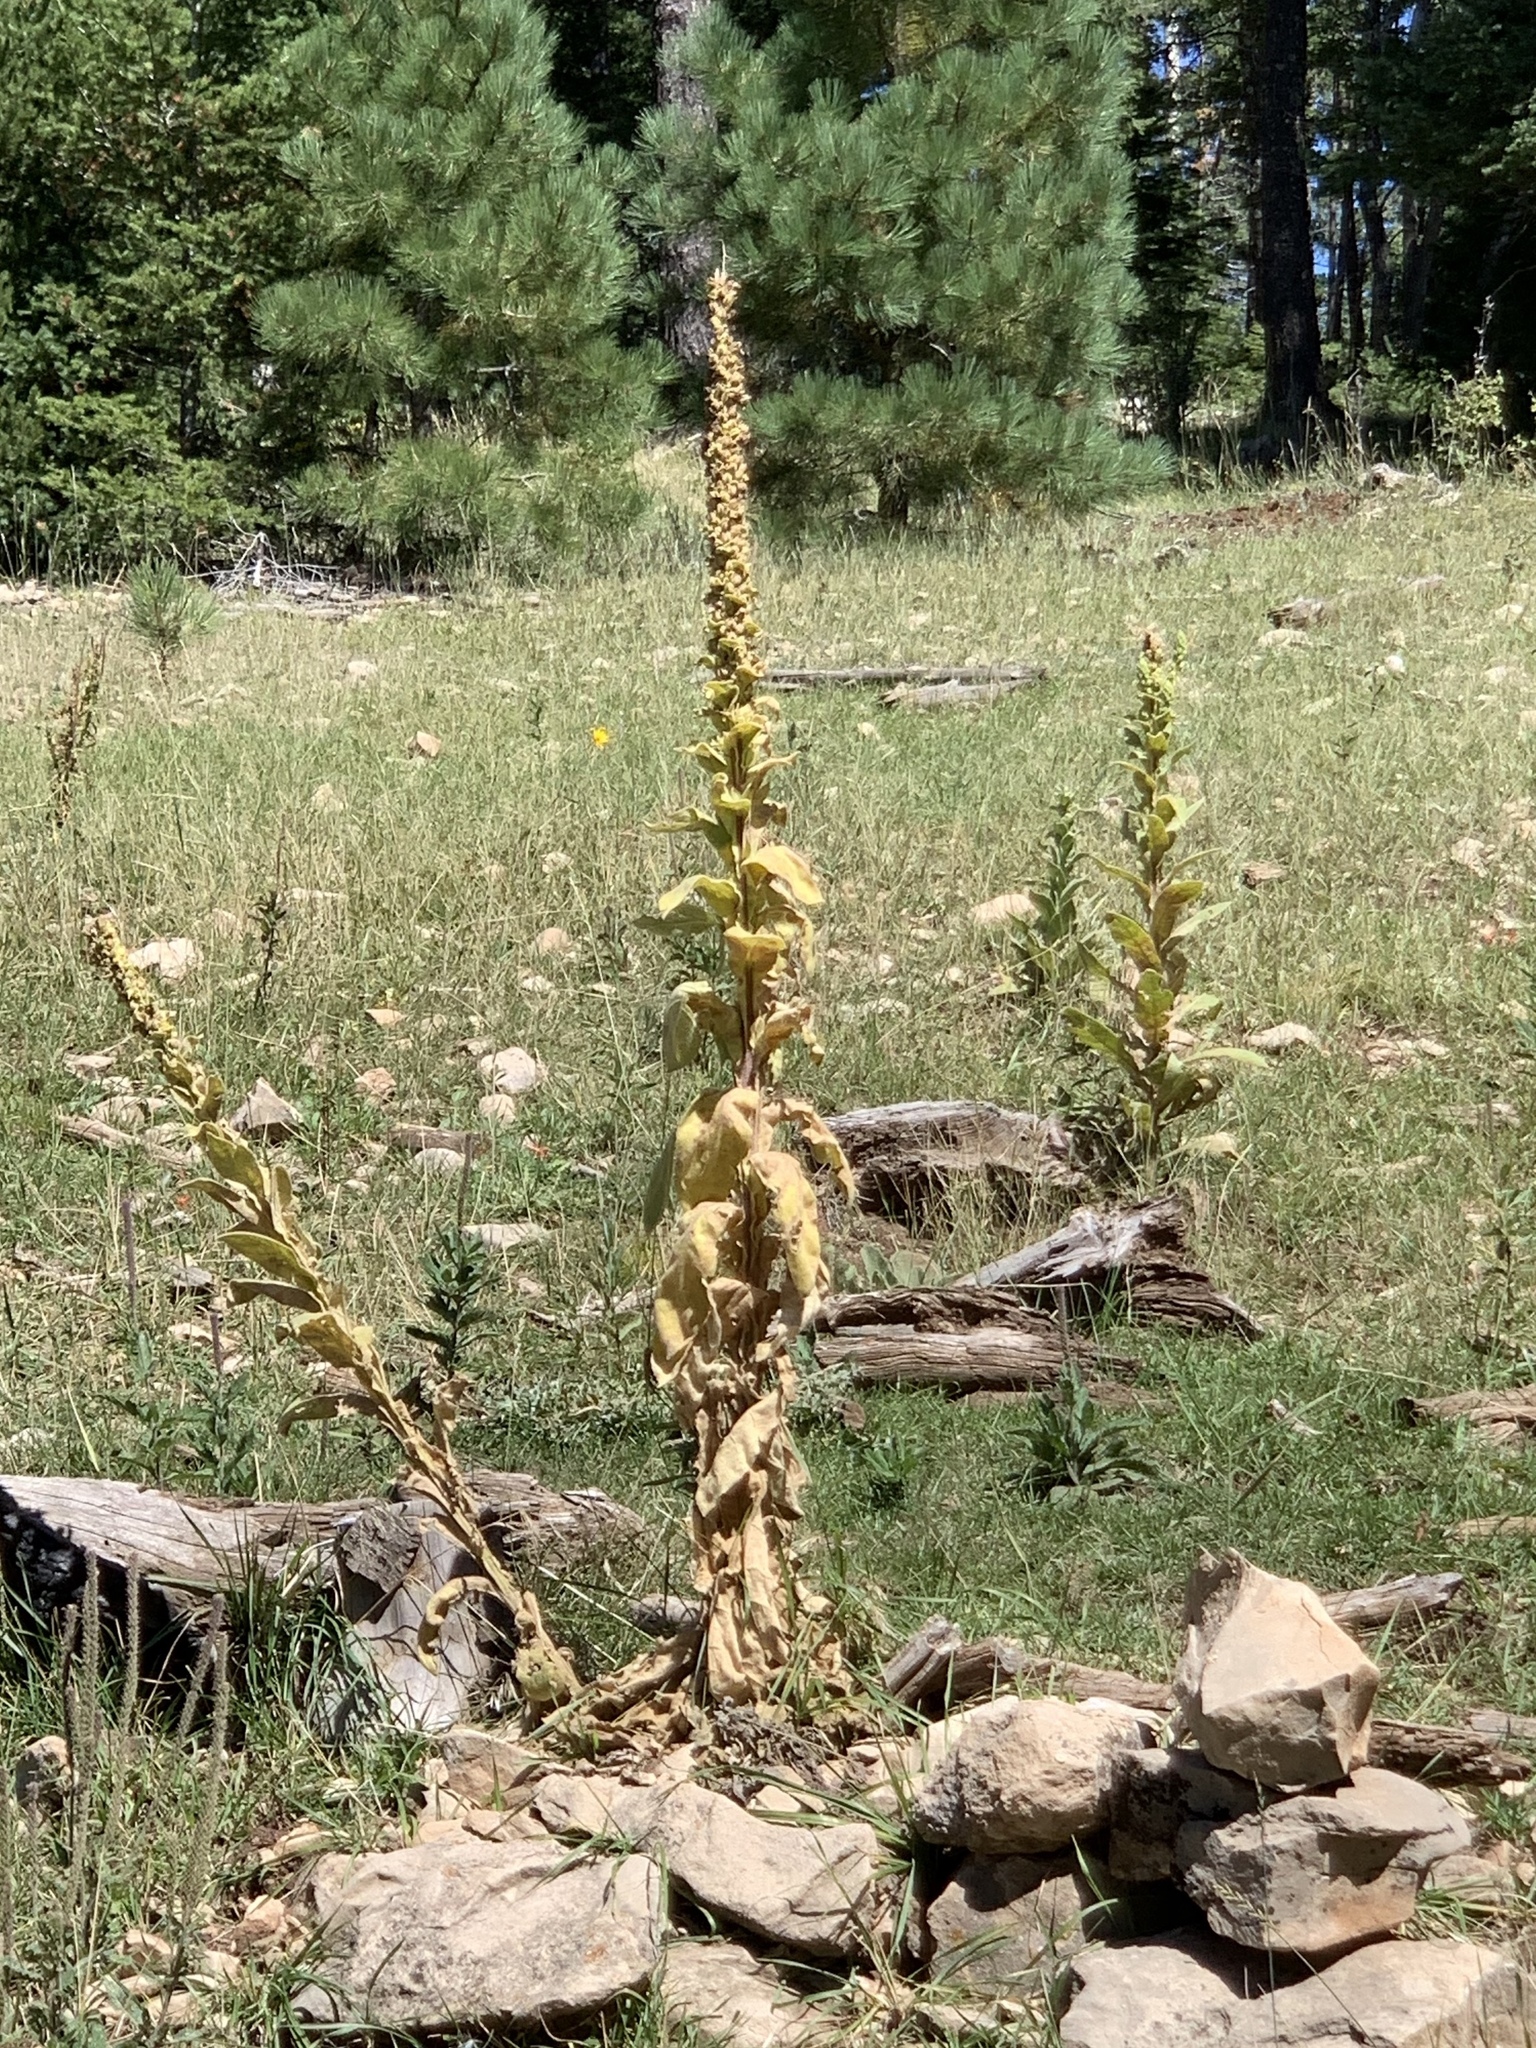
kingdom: Plantae
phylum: Tracheophyta
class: Magnoliopsida
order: Lamiales
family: Scrophulariaceae
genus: Verbascum
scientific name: Verbascum thapsus
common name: Common mullein
